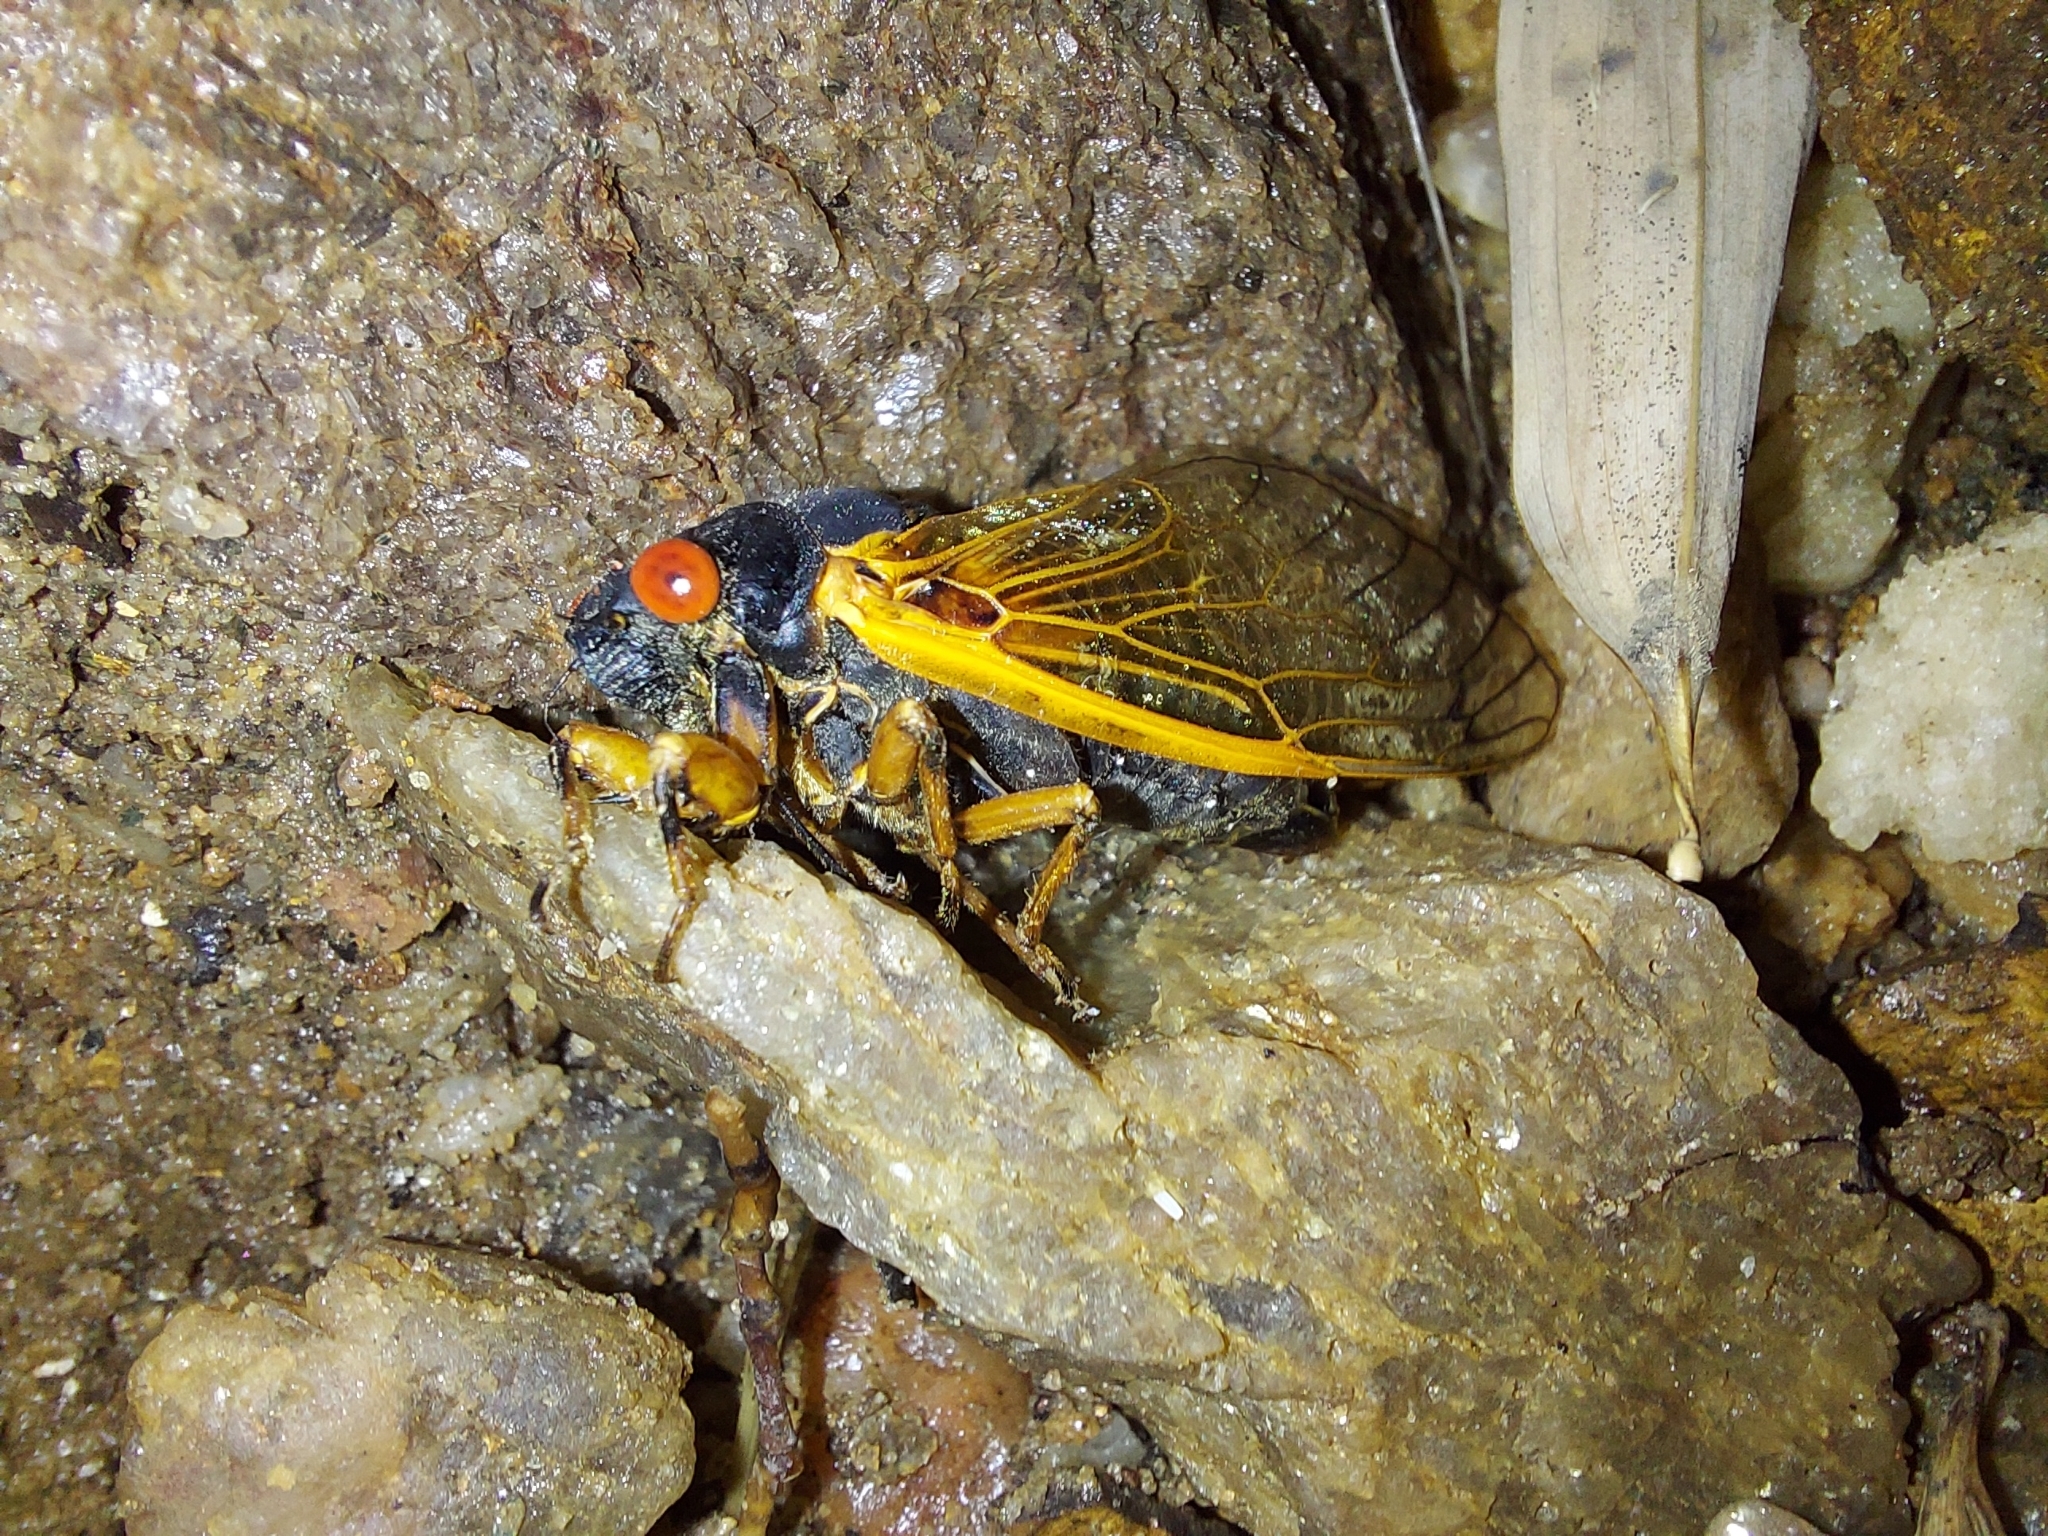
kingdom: Animalia
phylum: Arthropoda
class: Insecta
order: Hemiptera
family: Cicadidae
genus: Magicicada
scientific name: Magicicada cassini
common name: Cassin's 17-year cicada
